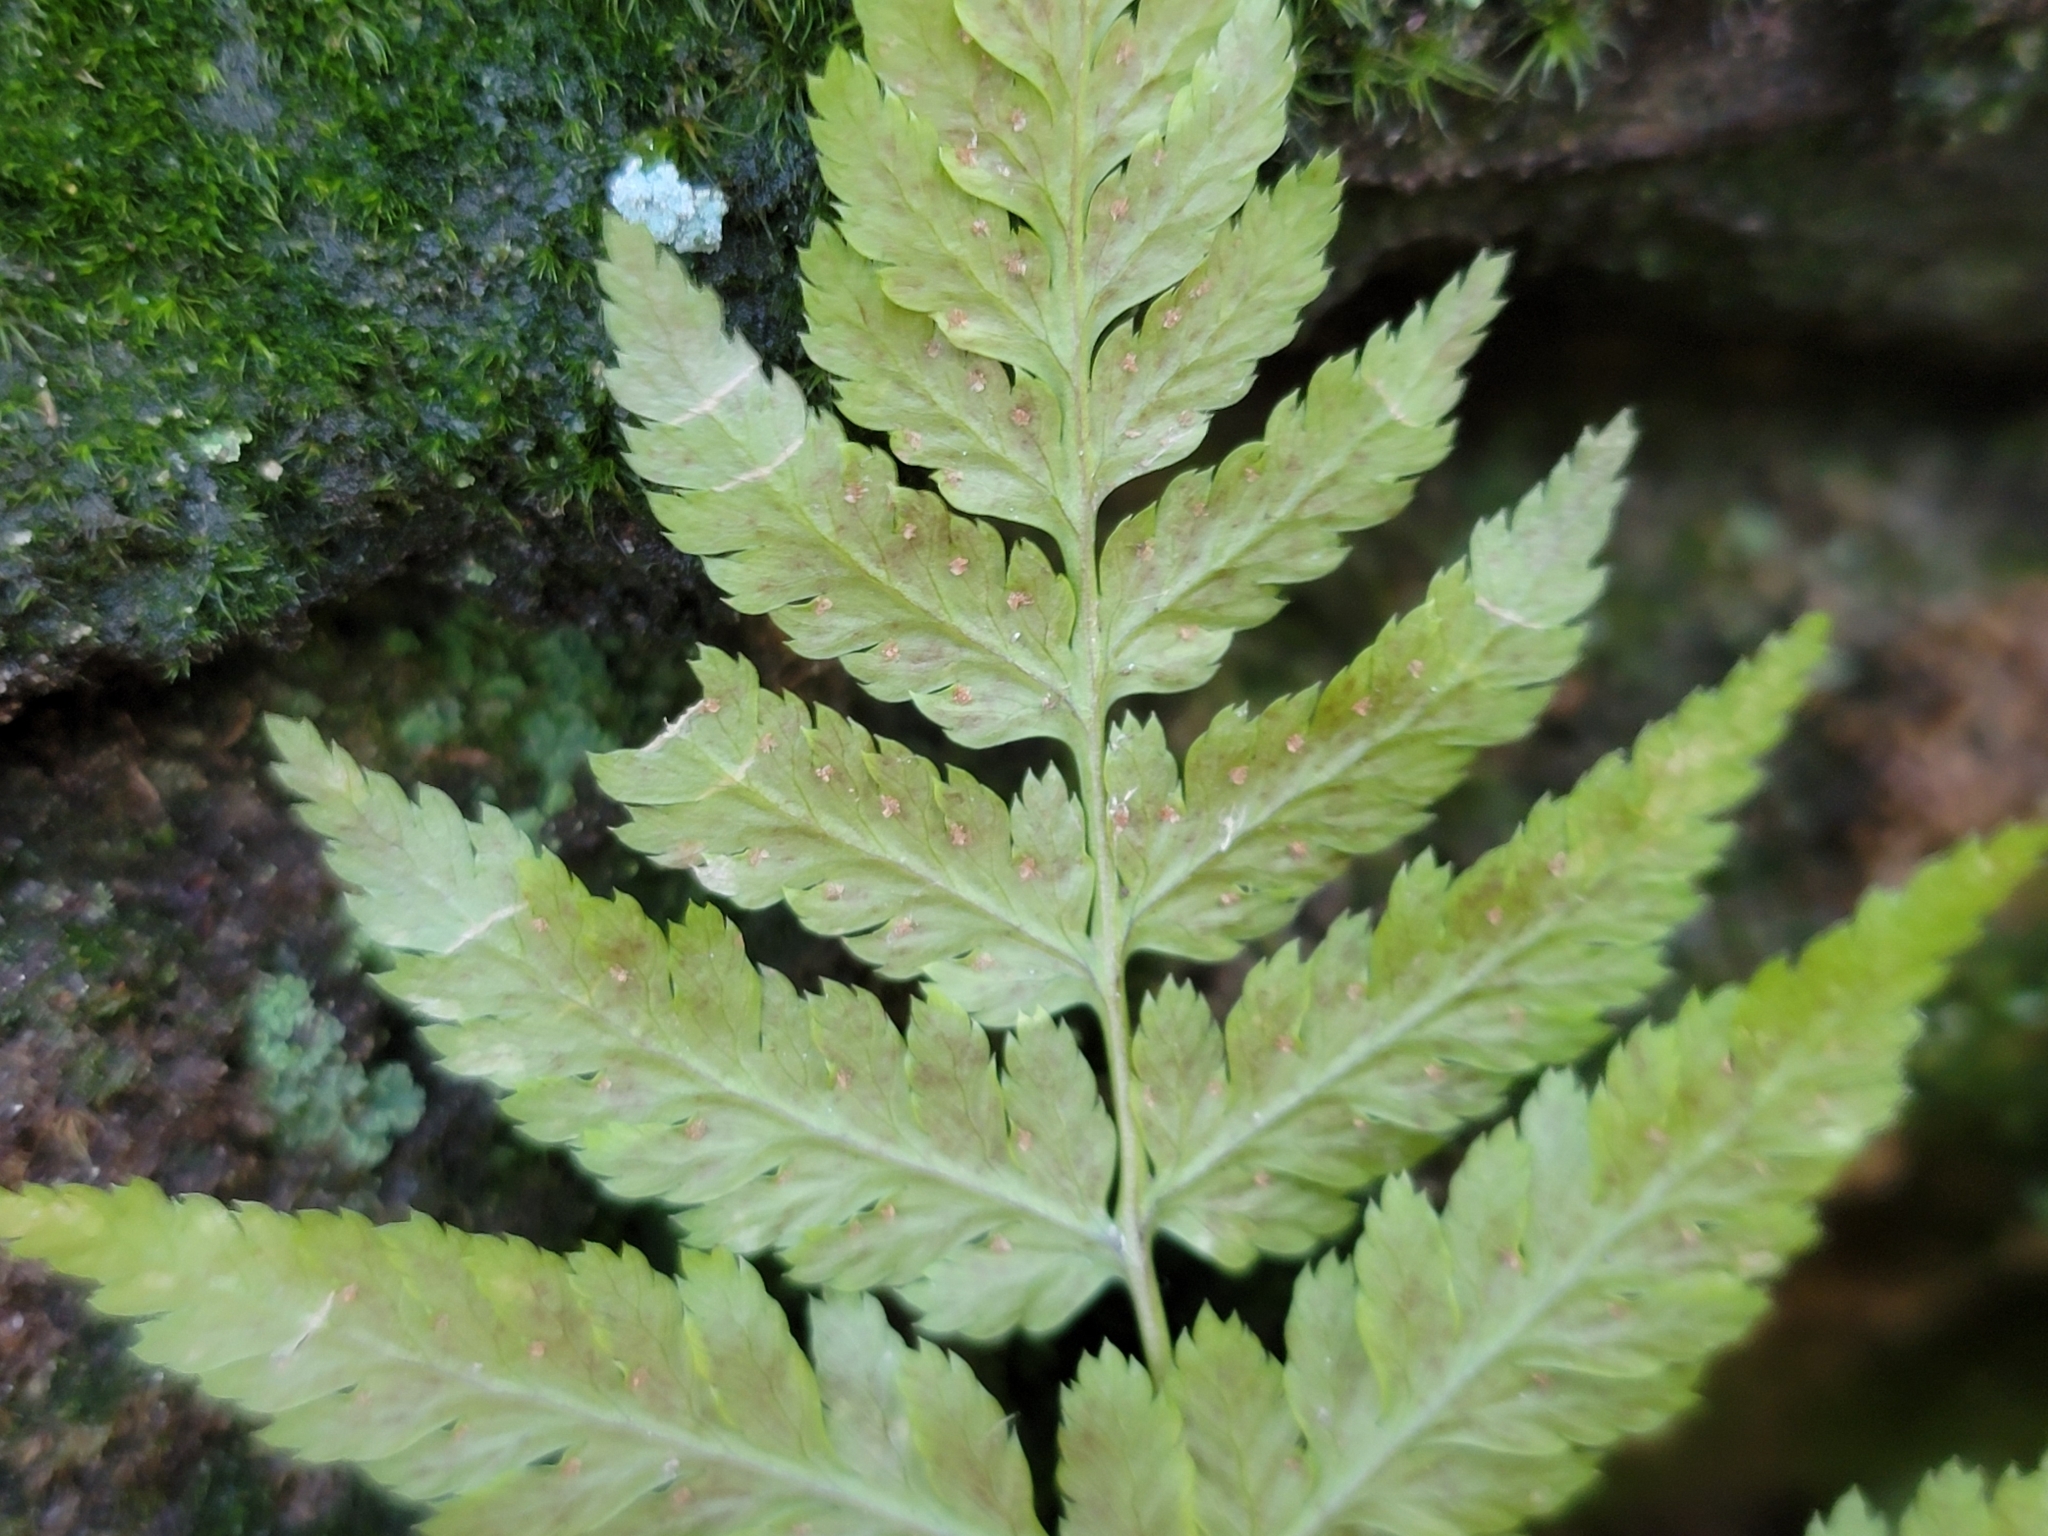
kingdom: Plantae
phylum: Tracheophyta
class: Polypodiopsida
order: Polypodiales
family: Dryopteridaceae
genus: Dryopteris
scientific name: Dryopteris carthusiana
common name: Narrow buckler-fern
